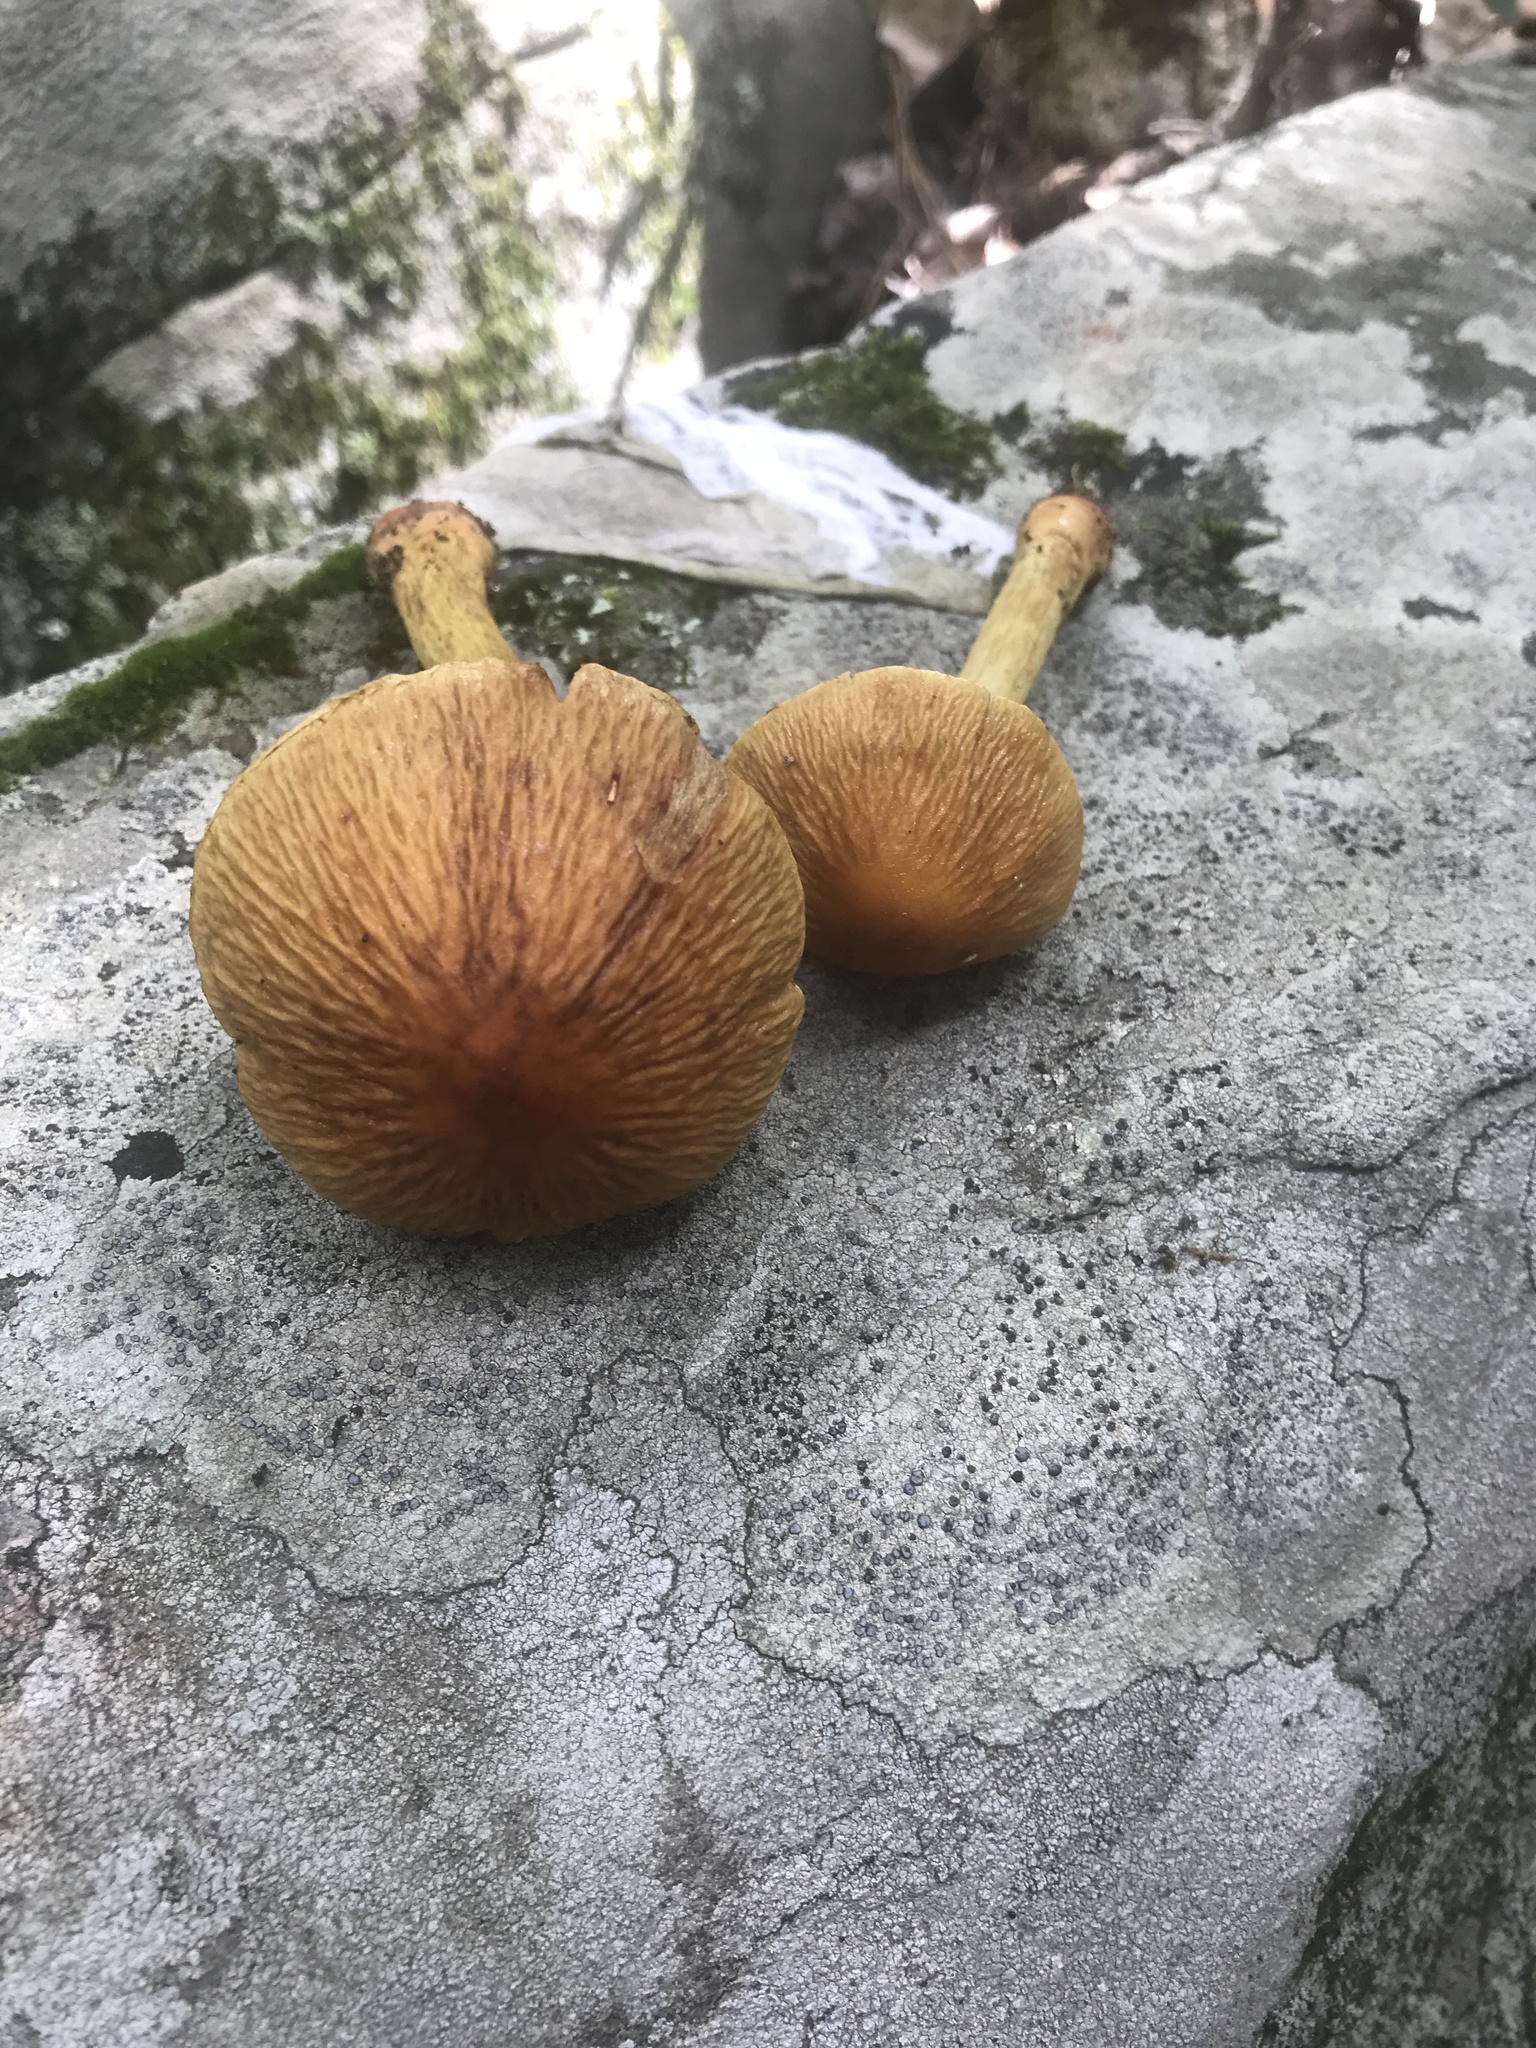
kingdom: Fungi
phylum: Basidiomycota
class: Agaricomycetes
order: Agaricales
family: Cortinariaceae
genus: Cortinarius
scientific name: Cortinarius corrugatus
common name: Wrinkled cortinarius
